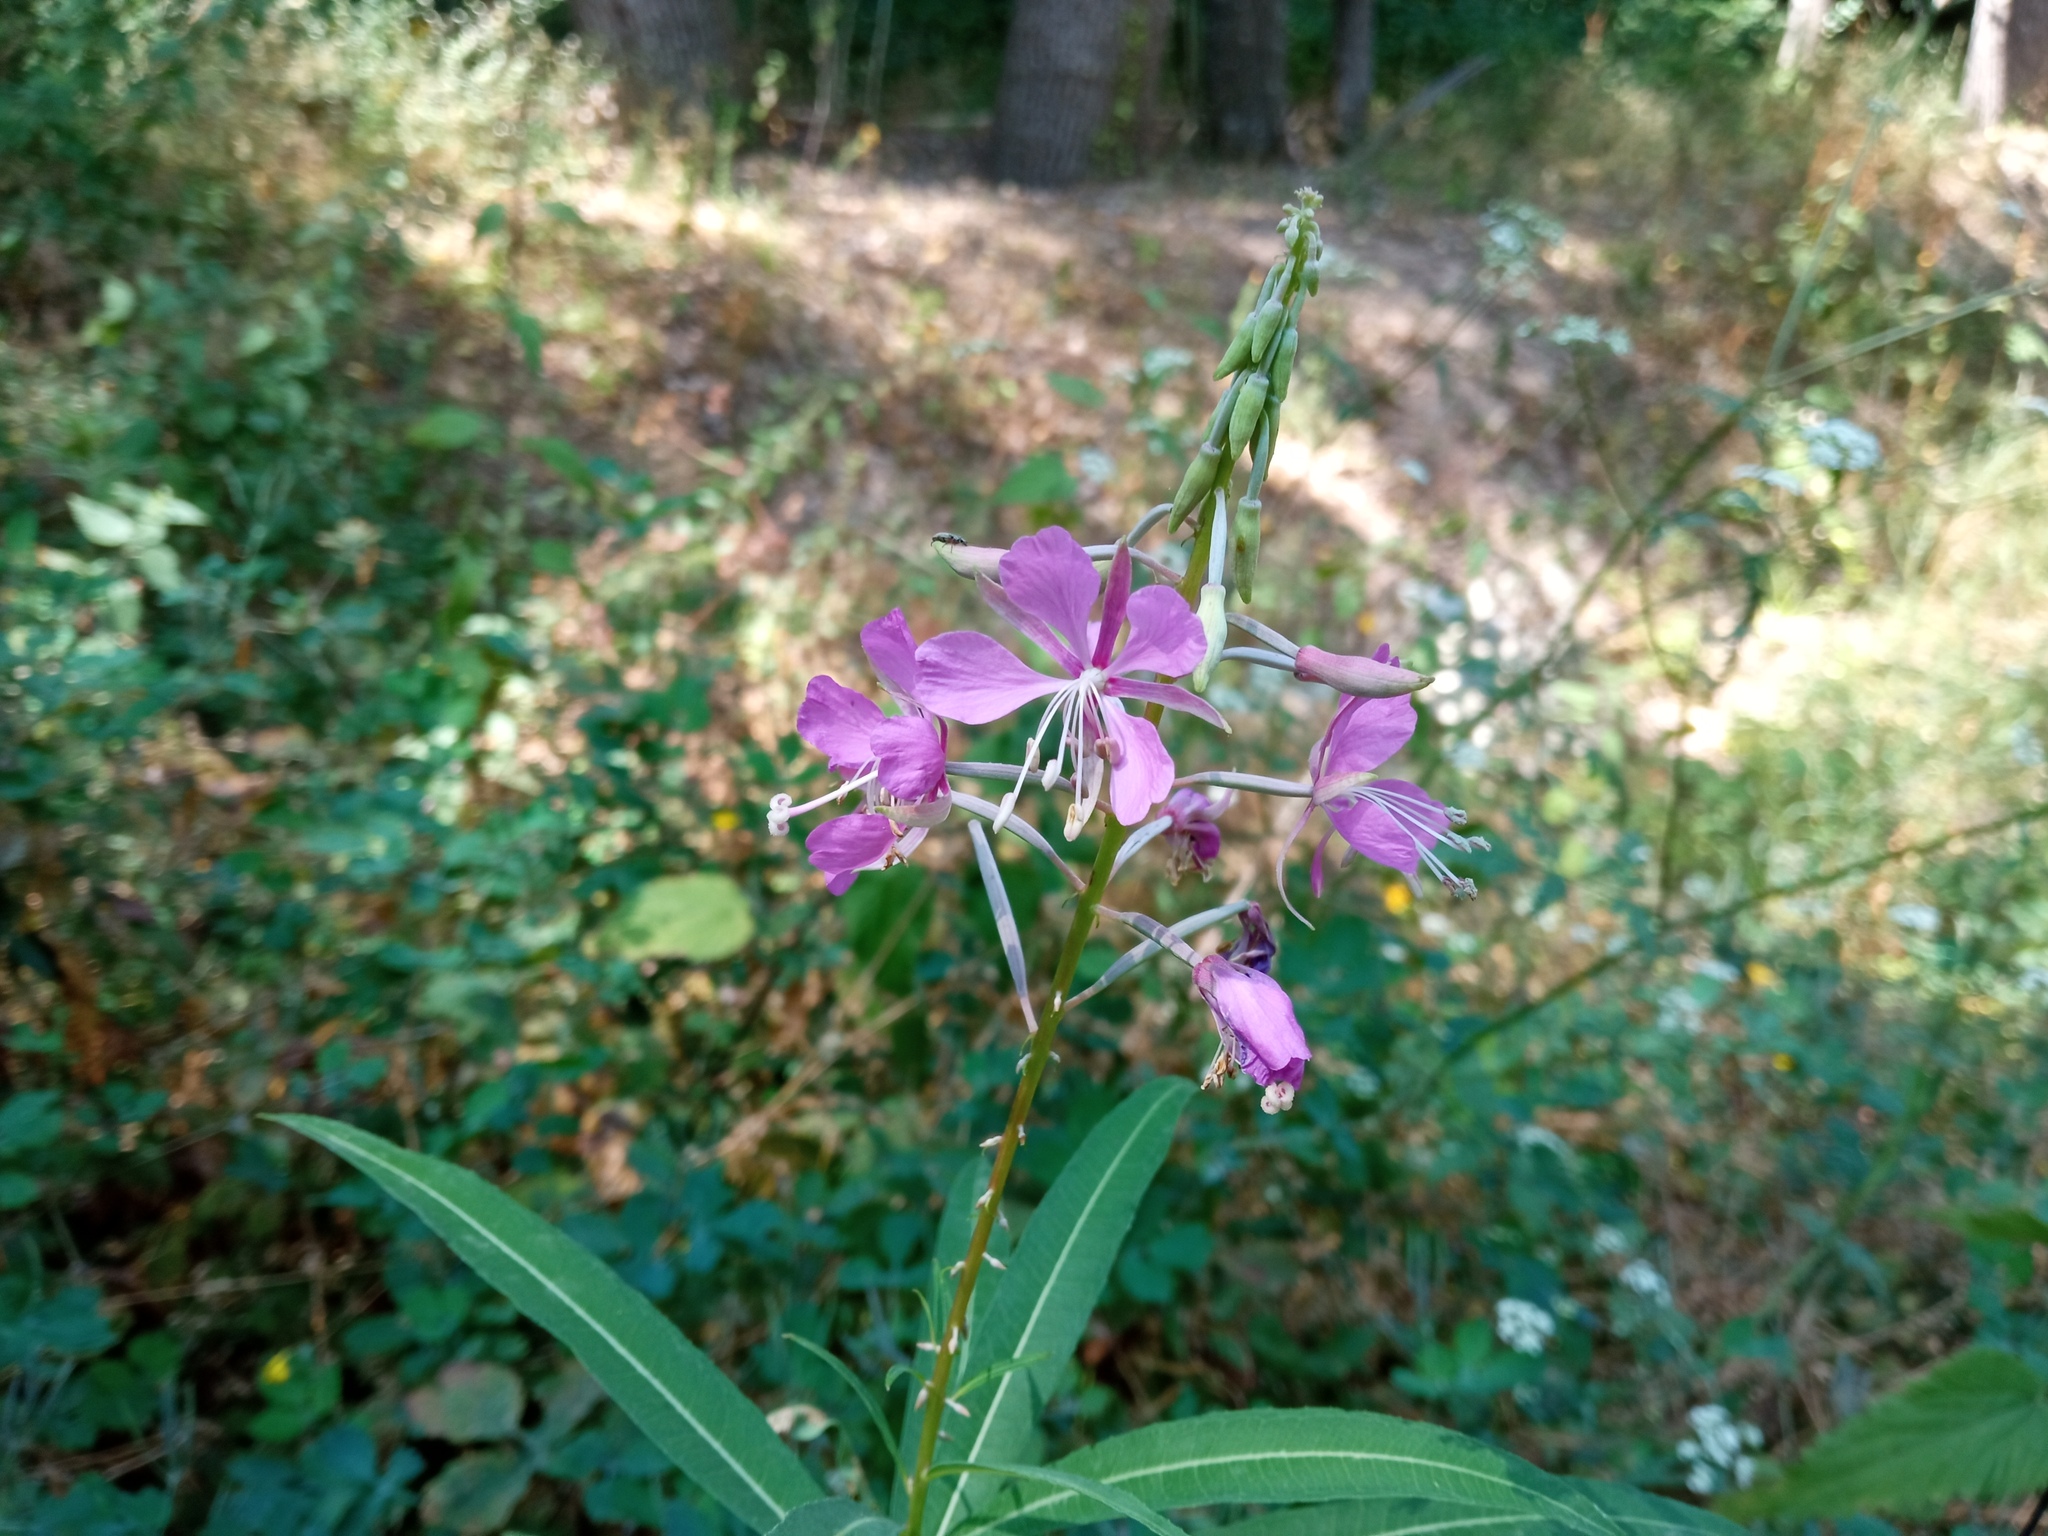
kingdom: Plantae
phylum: Tracheophyta
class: Magnoliopsida
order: Myrtales
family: Onagraceae
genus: Chamaenerion
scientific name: Chamaenerion angustifolium
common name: Fireweed
